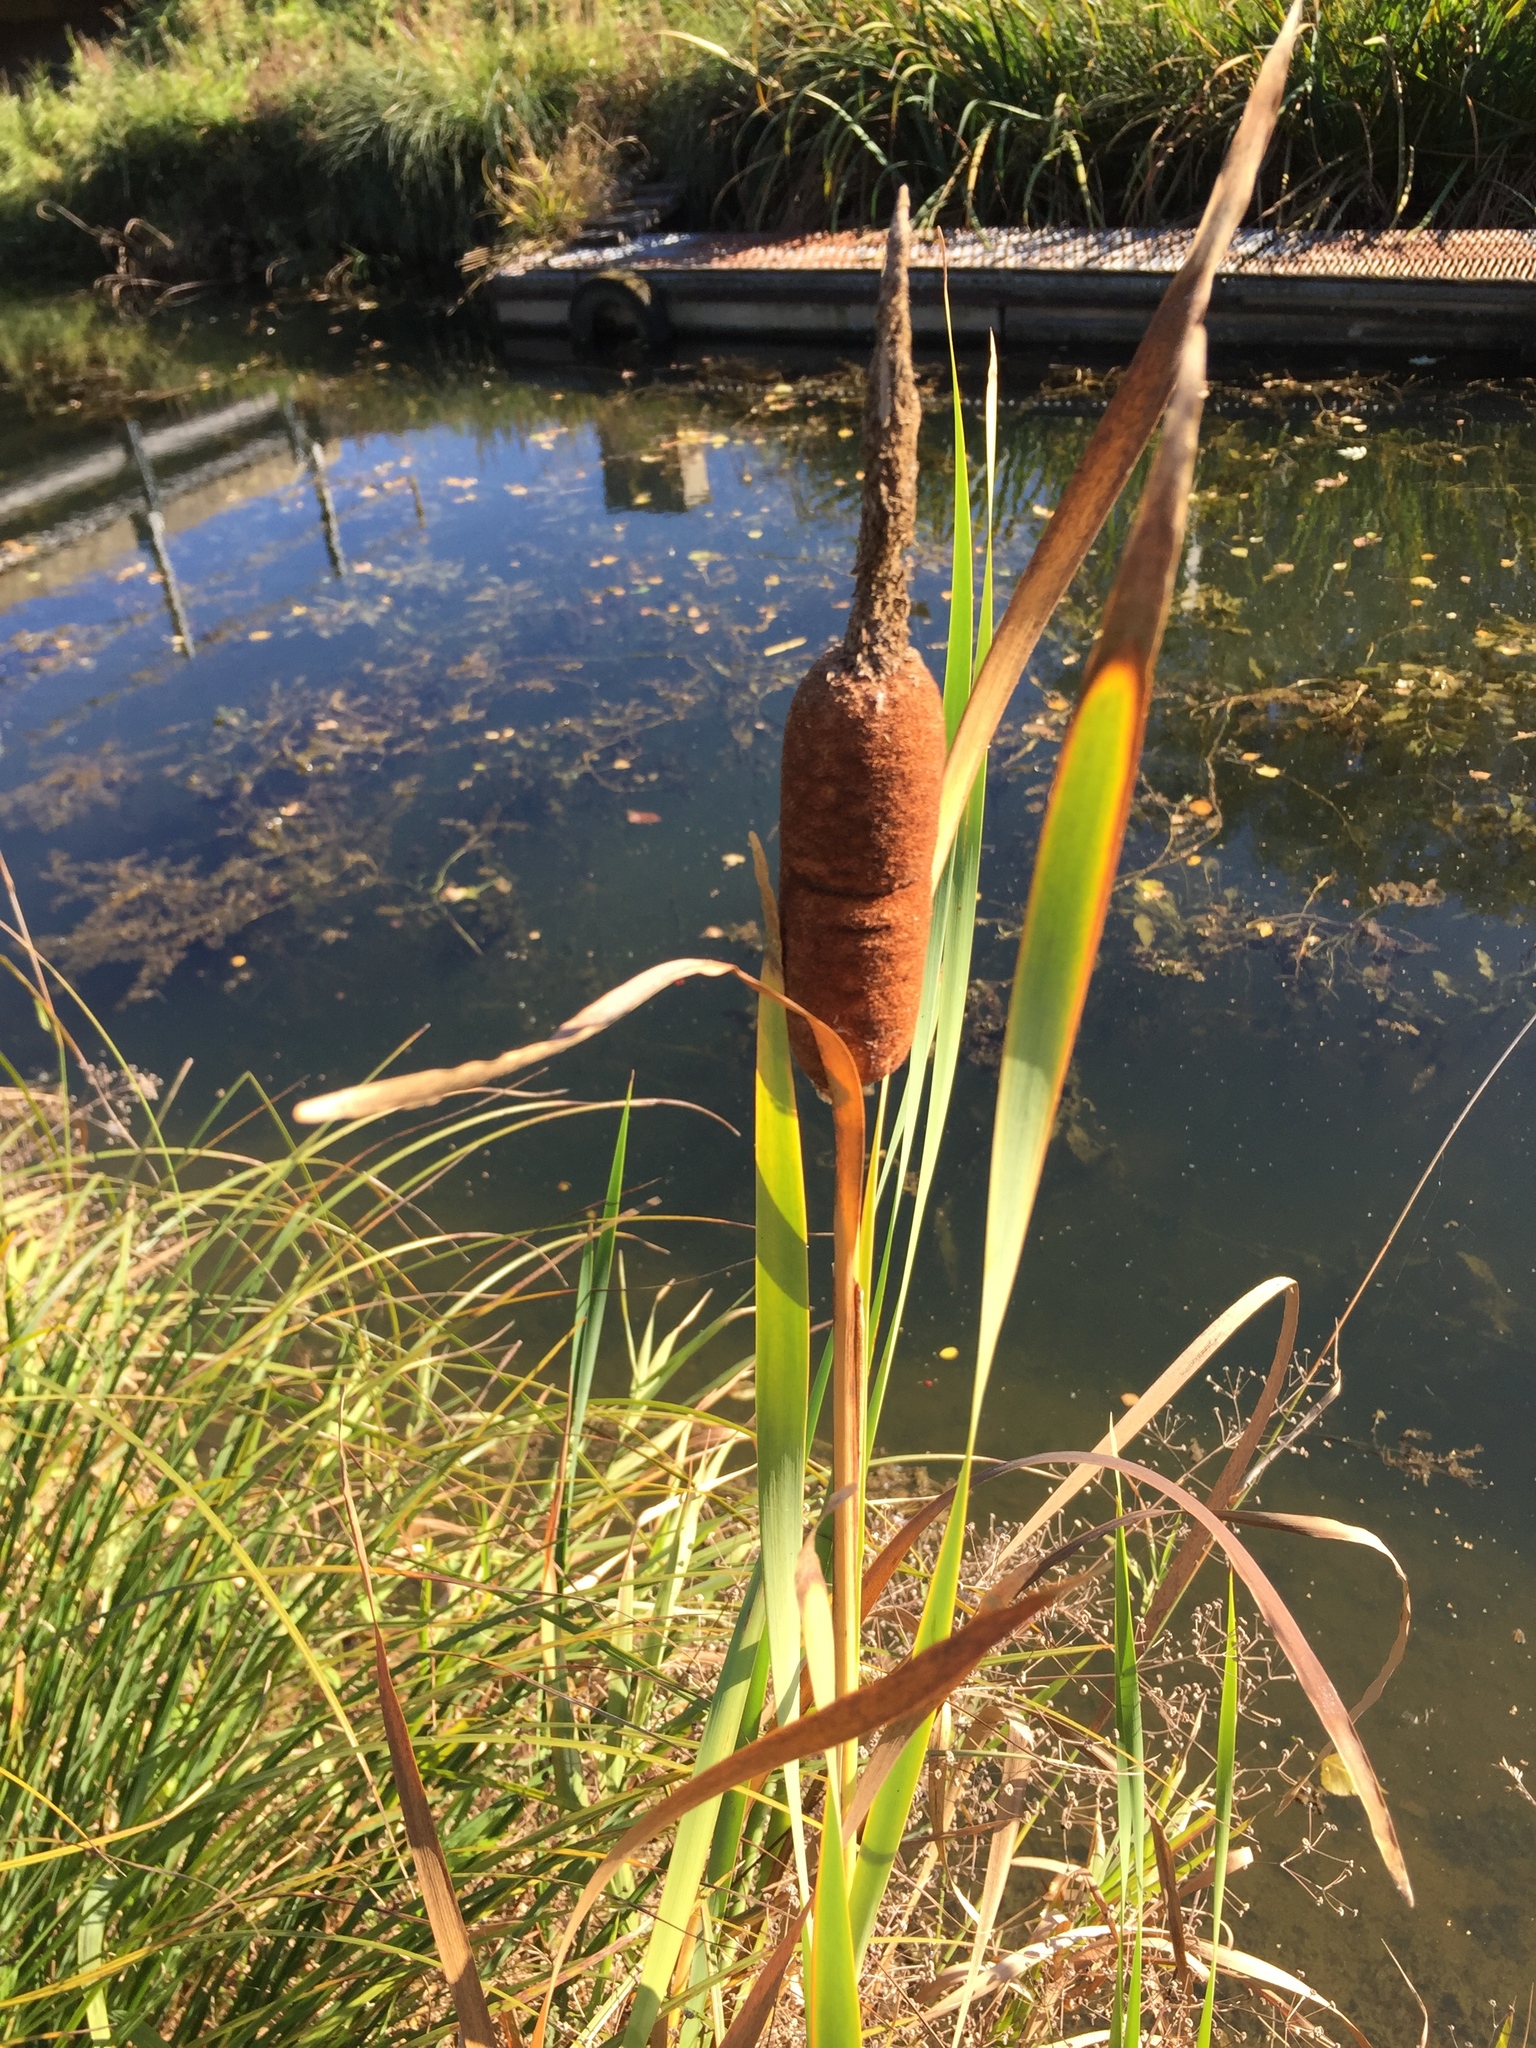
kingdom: Plantae
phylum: Tracheophyta
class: Liliopsida
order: Poales
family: Typhaceae
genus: Typha
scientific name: Typha latifolia
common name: Broadleaf cattail
